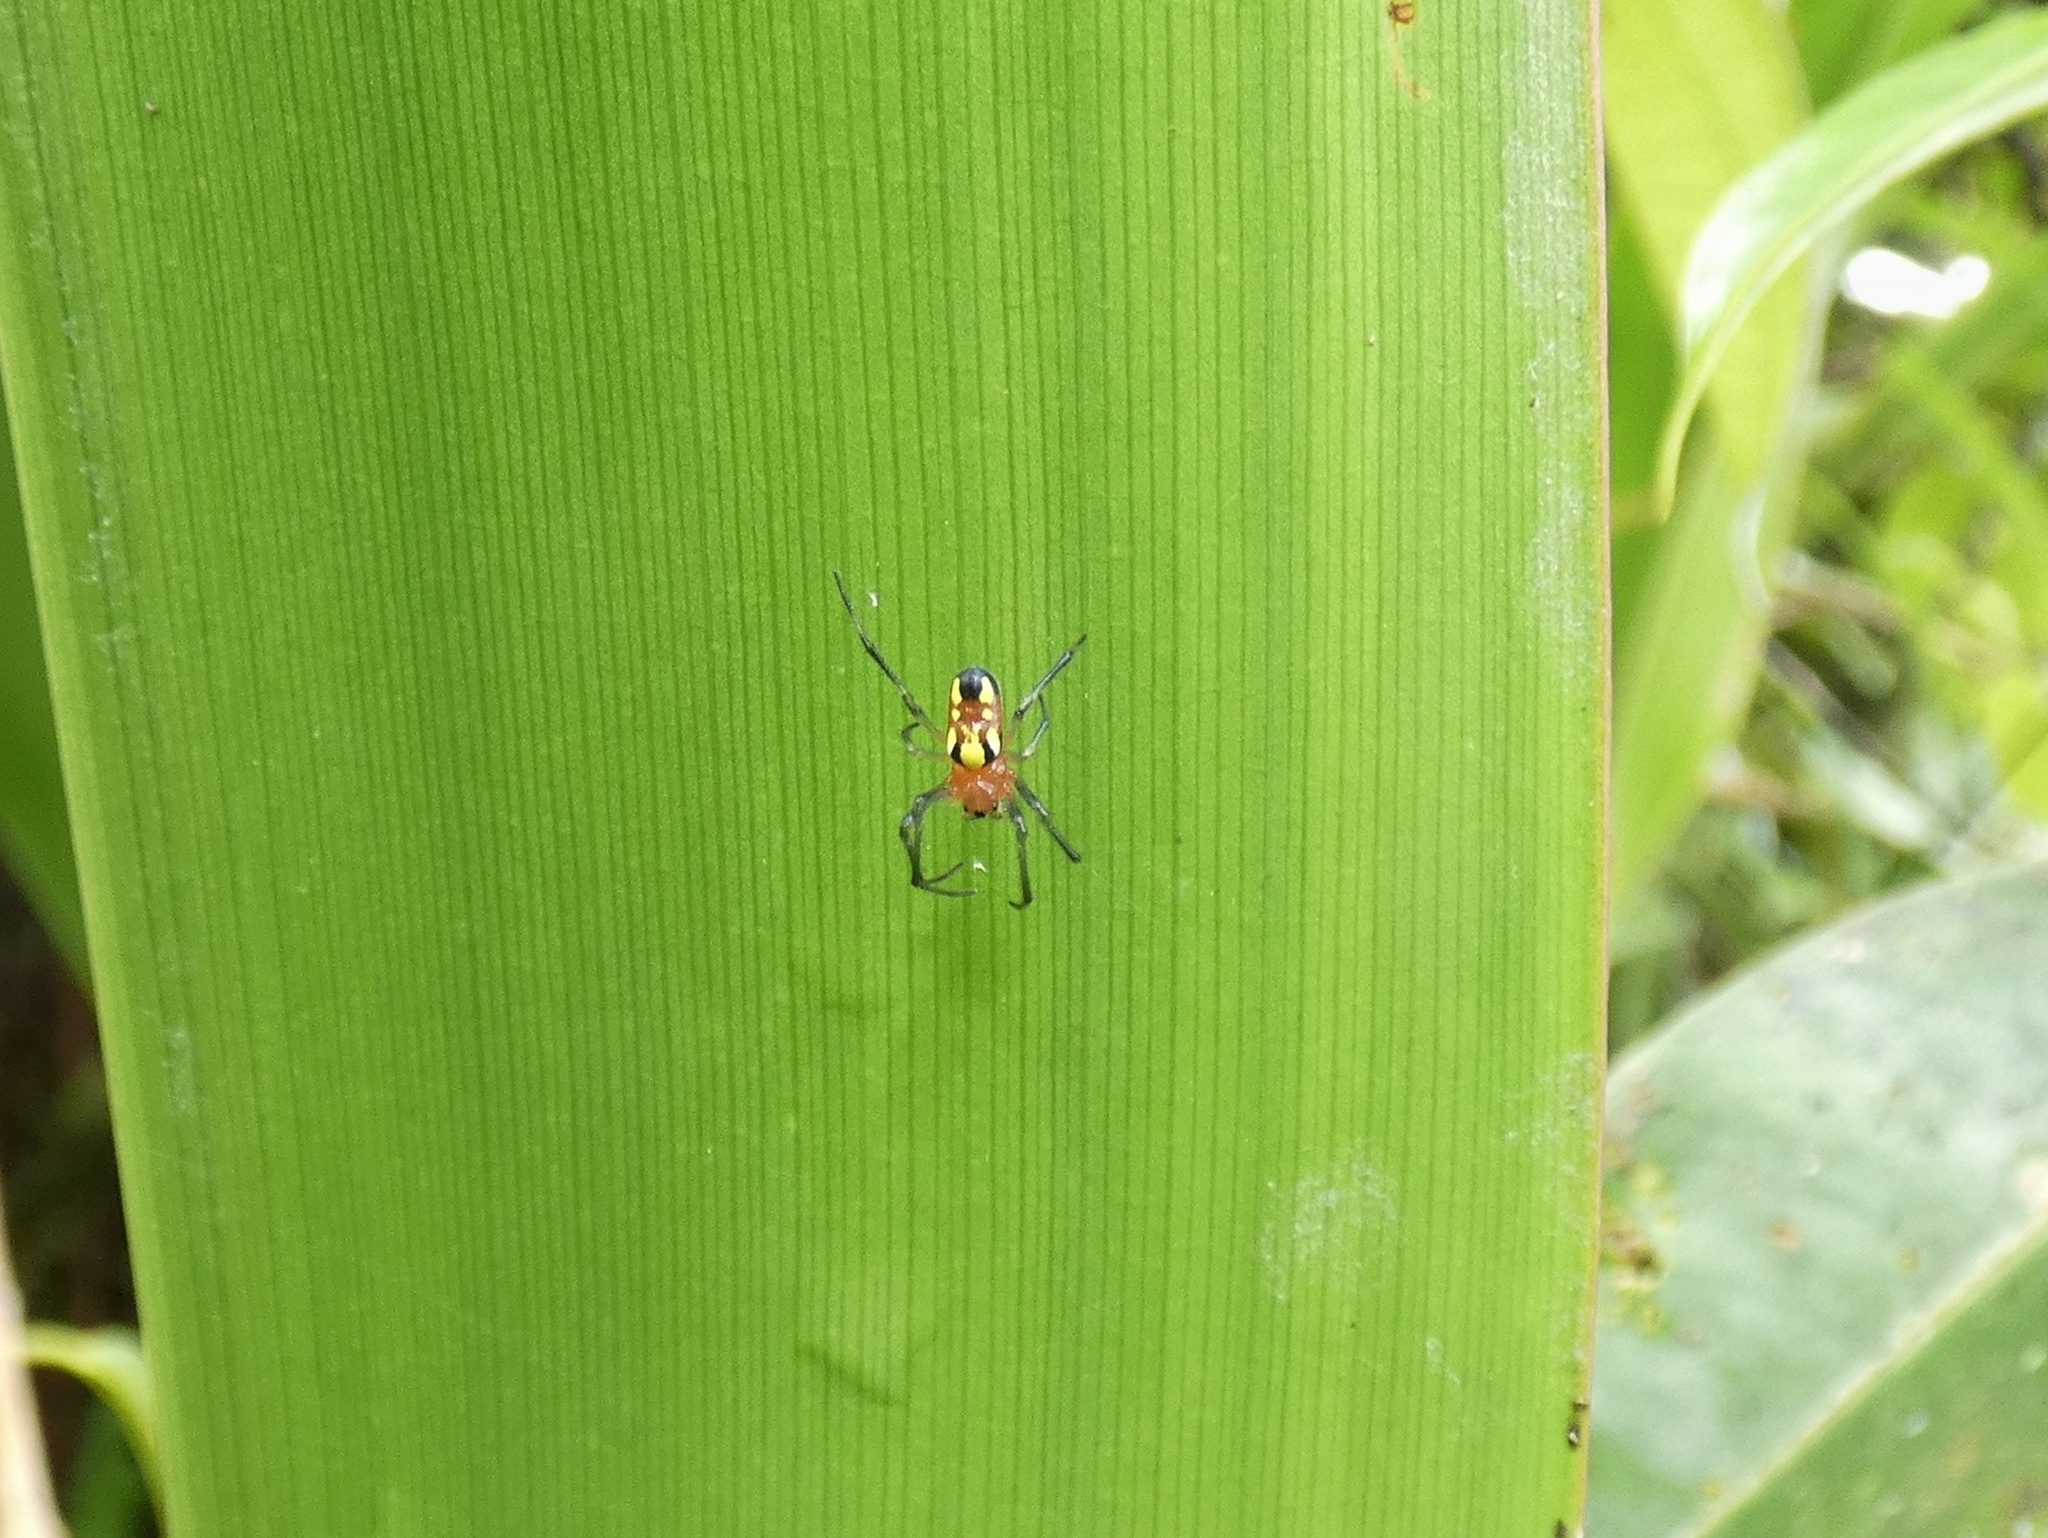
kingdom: Animalia
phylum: Arthropoda
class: Arachnida
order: Araneae
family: Araneidae
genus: Alpaida
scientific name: Alpaida championi
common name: Orb weavers
